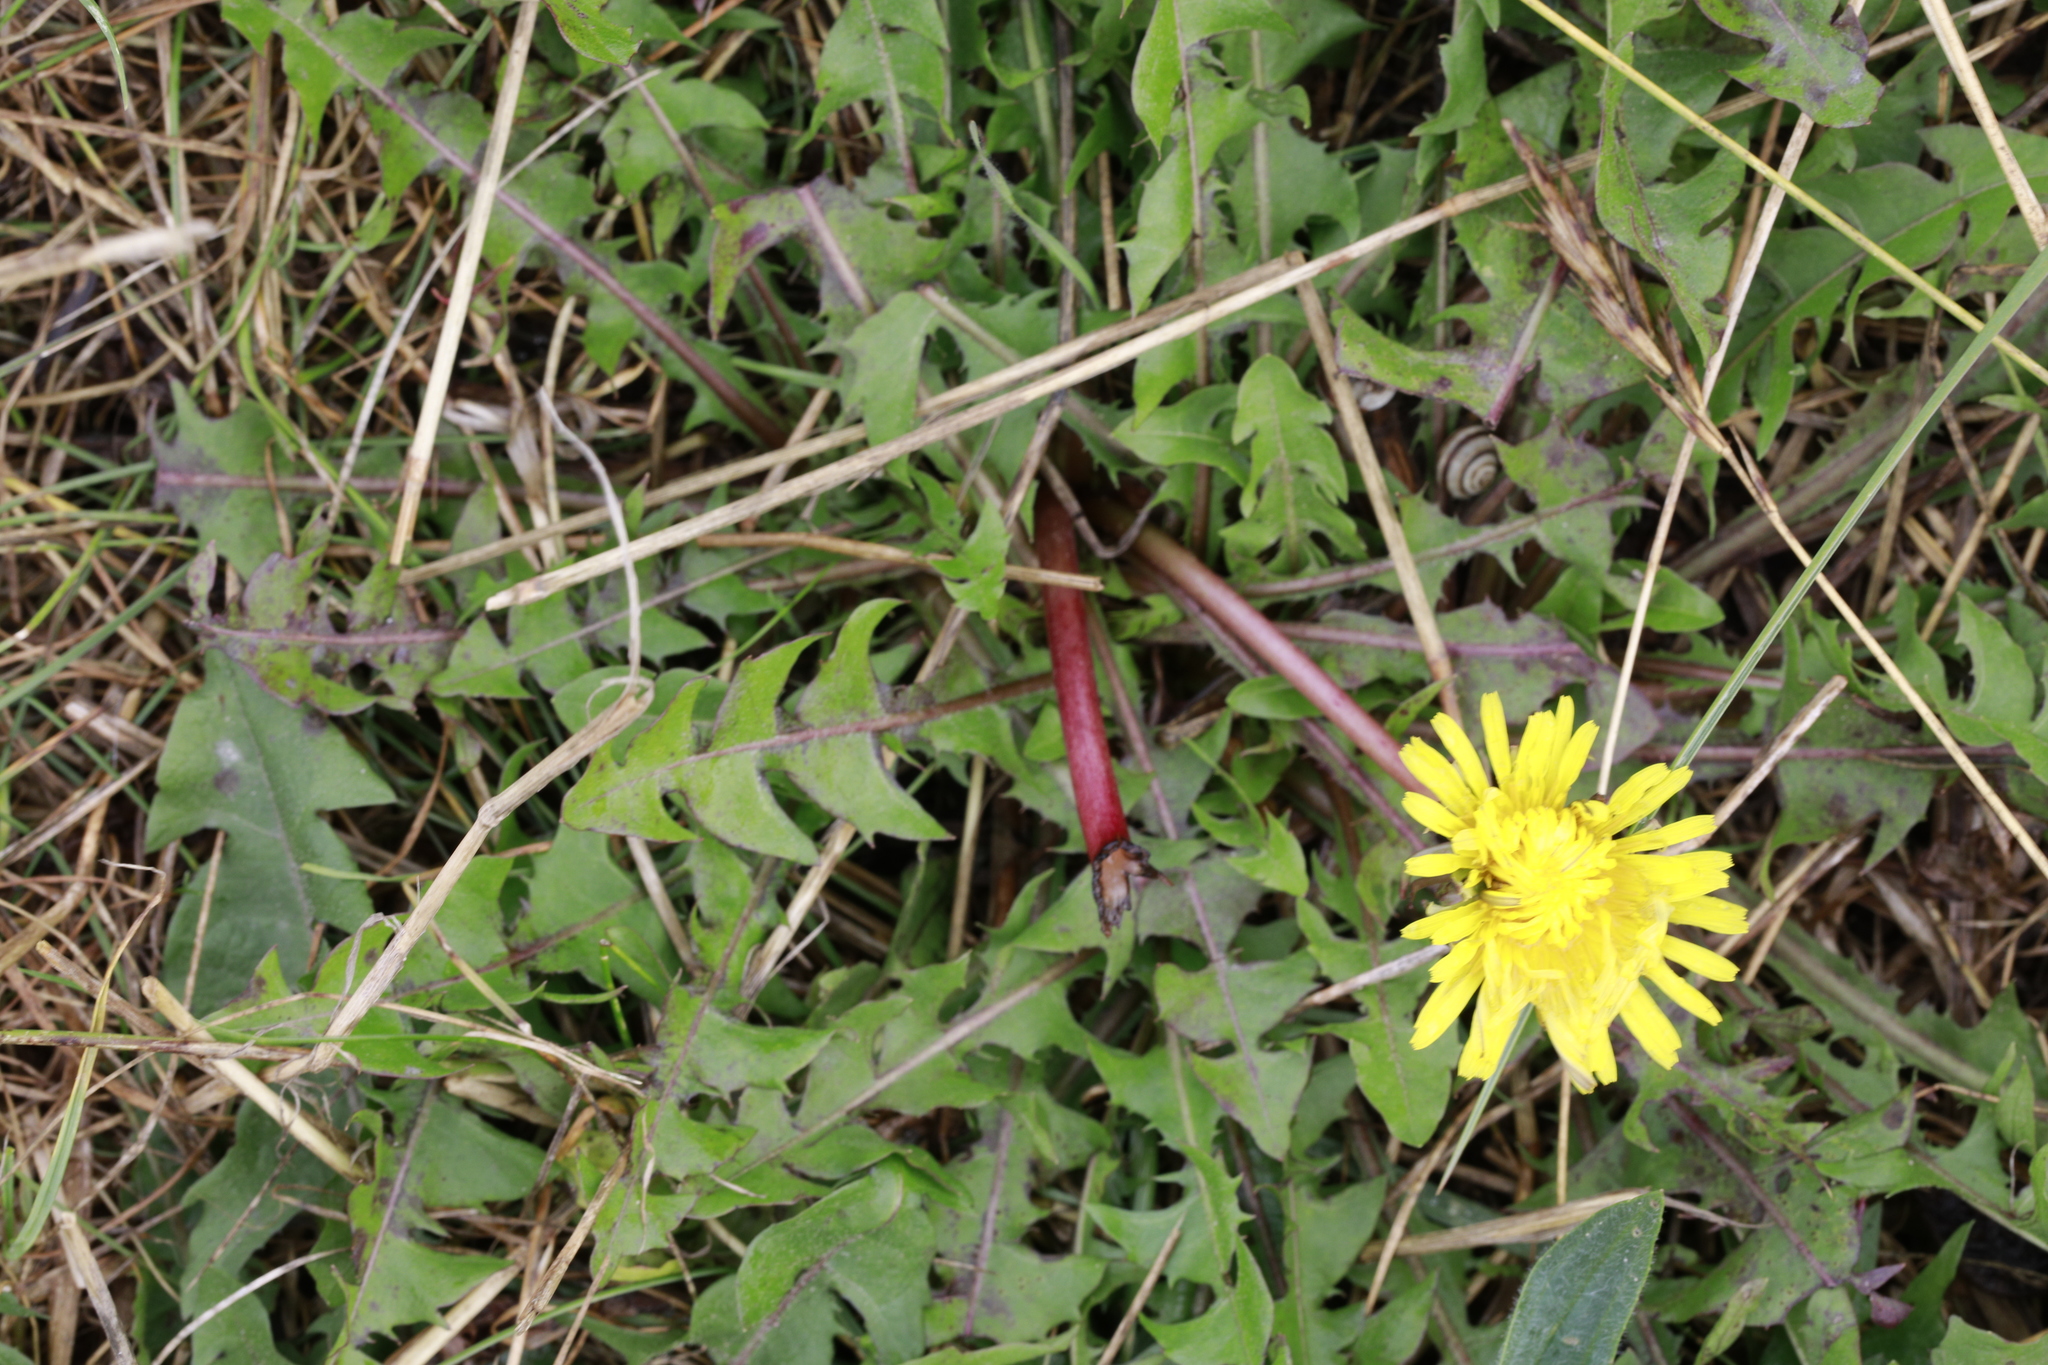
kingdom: Plantae
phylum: Tracheophyta
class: Magnoliopsida
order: Asterales
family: Asteraceae
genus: Taraxacum
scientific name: Taraxacum officinale
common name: Common dandelion
